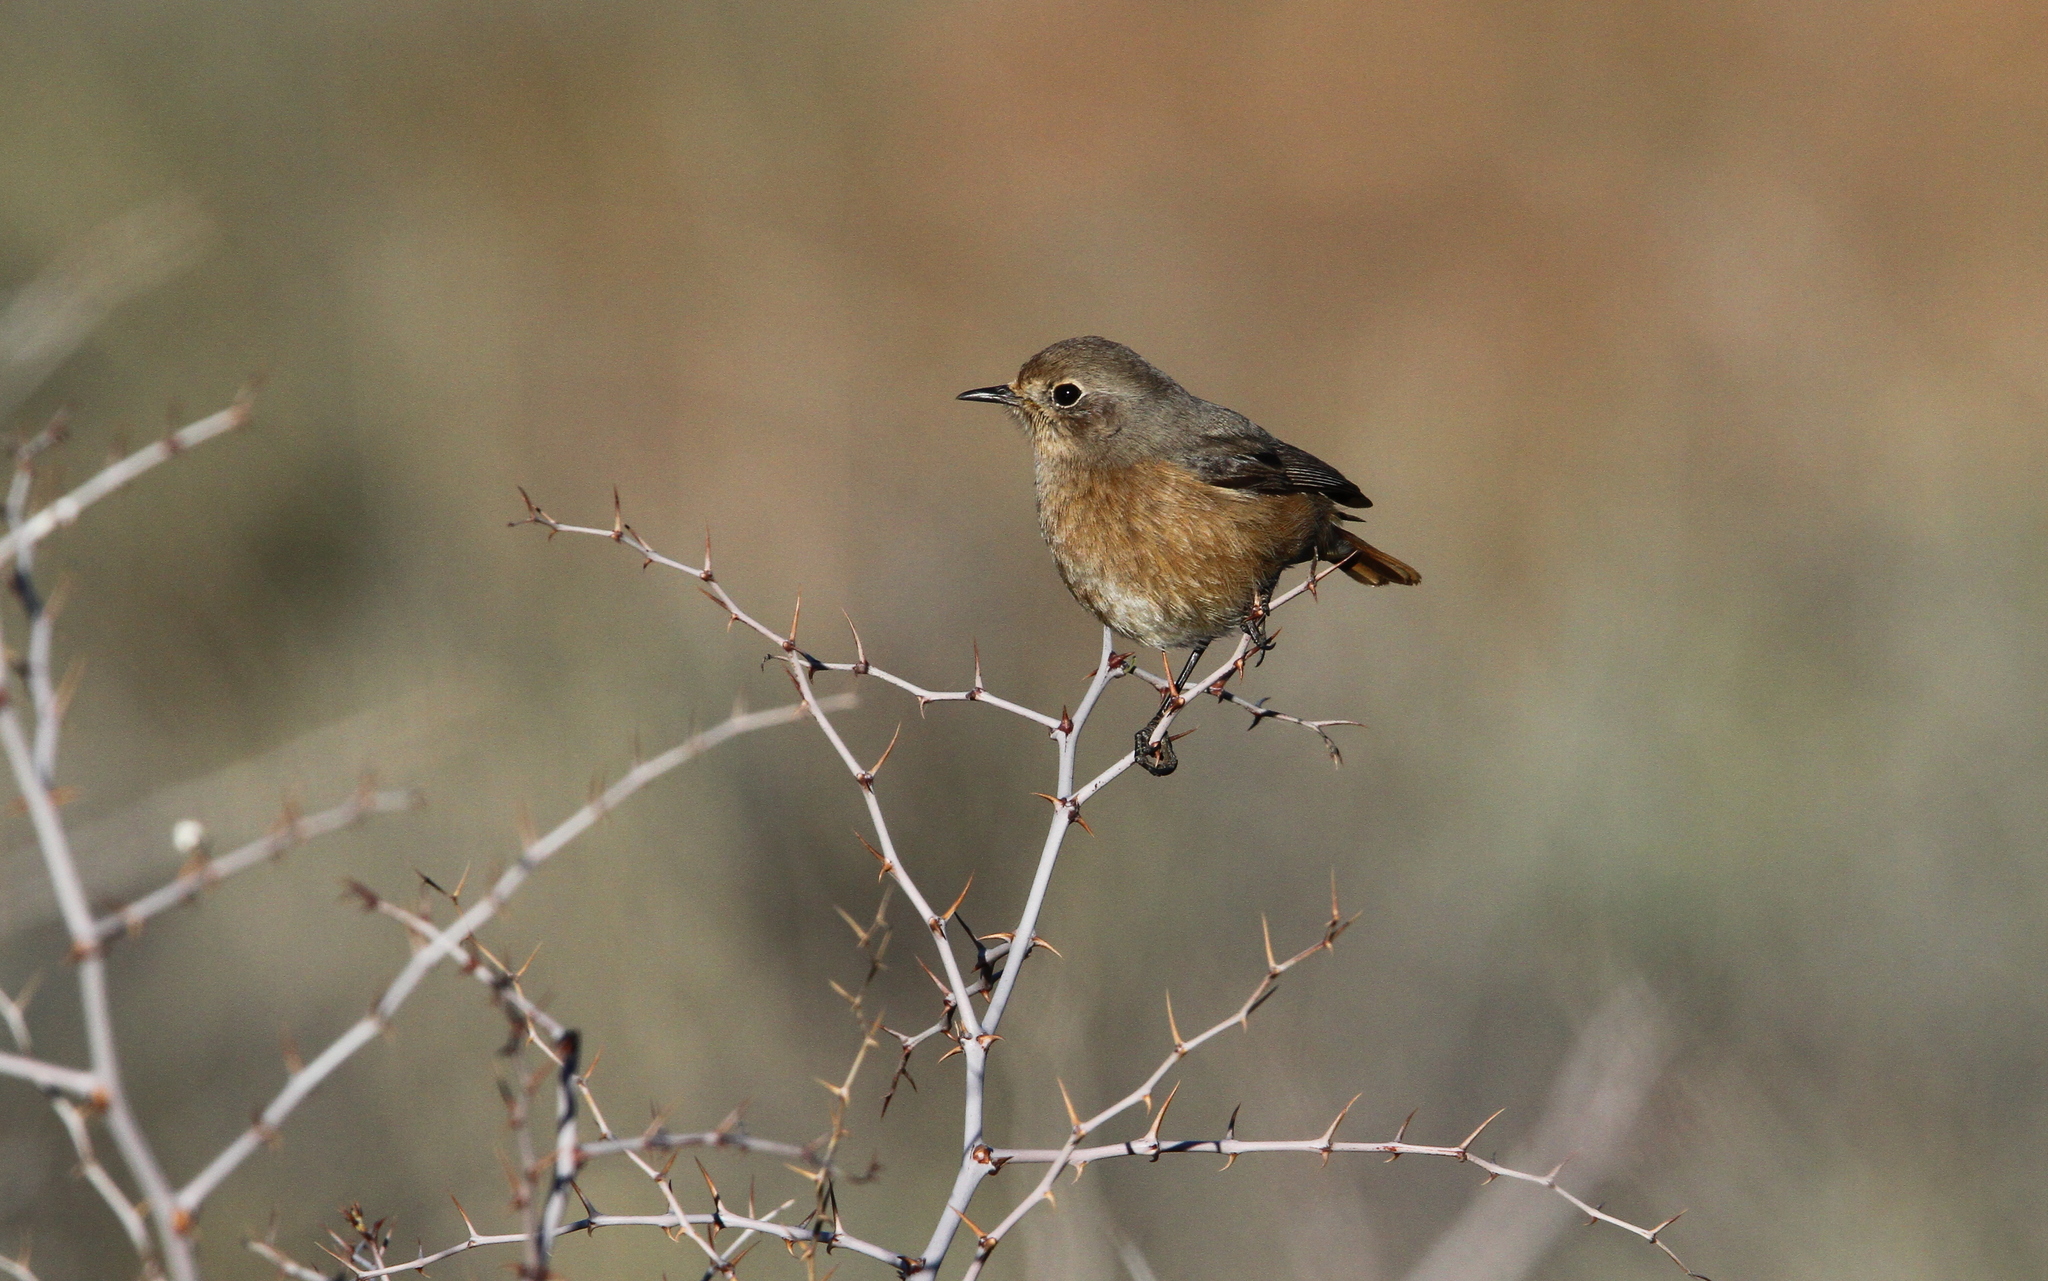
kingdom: Animalia
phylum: Chordata
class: Aves
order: Passeriformes
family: Muscicapidae
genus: Phoenicurus
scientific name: Phoenicurus moussieri
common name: Moussier's redstart
